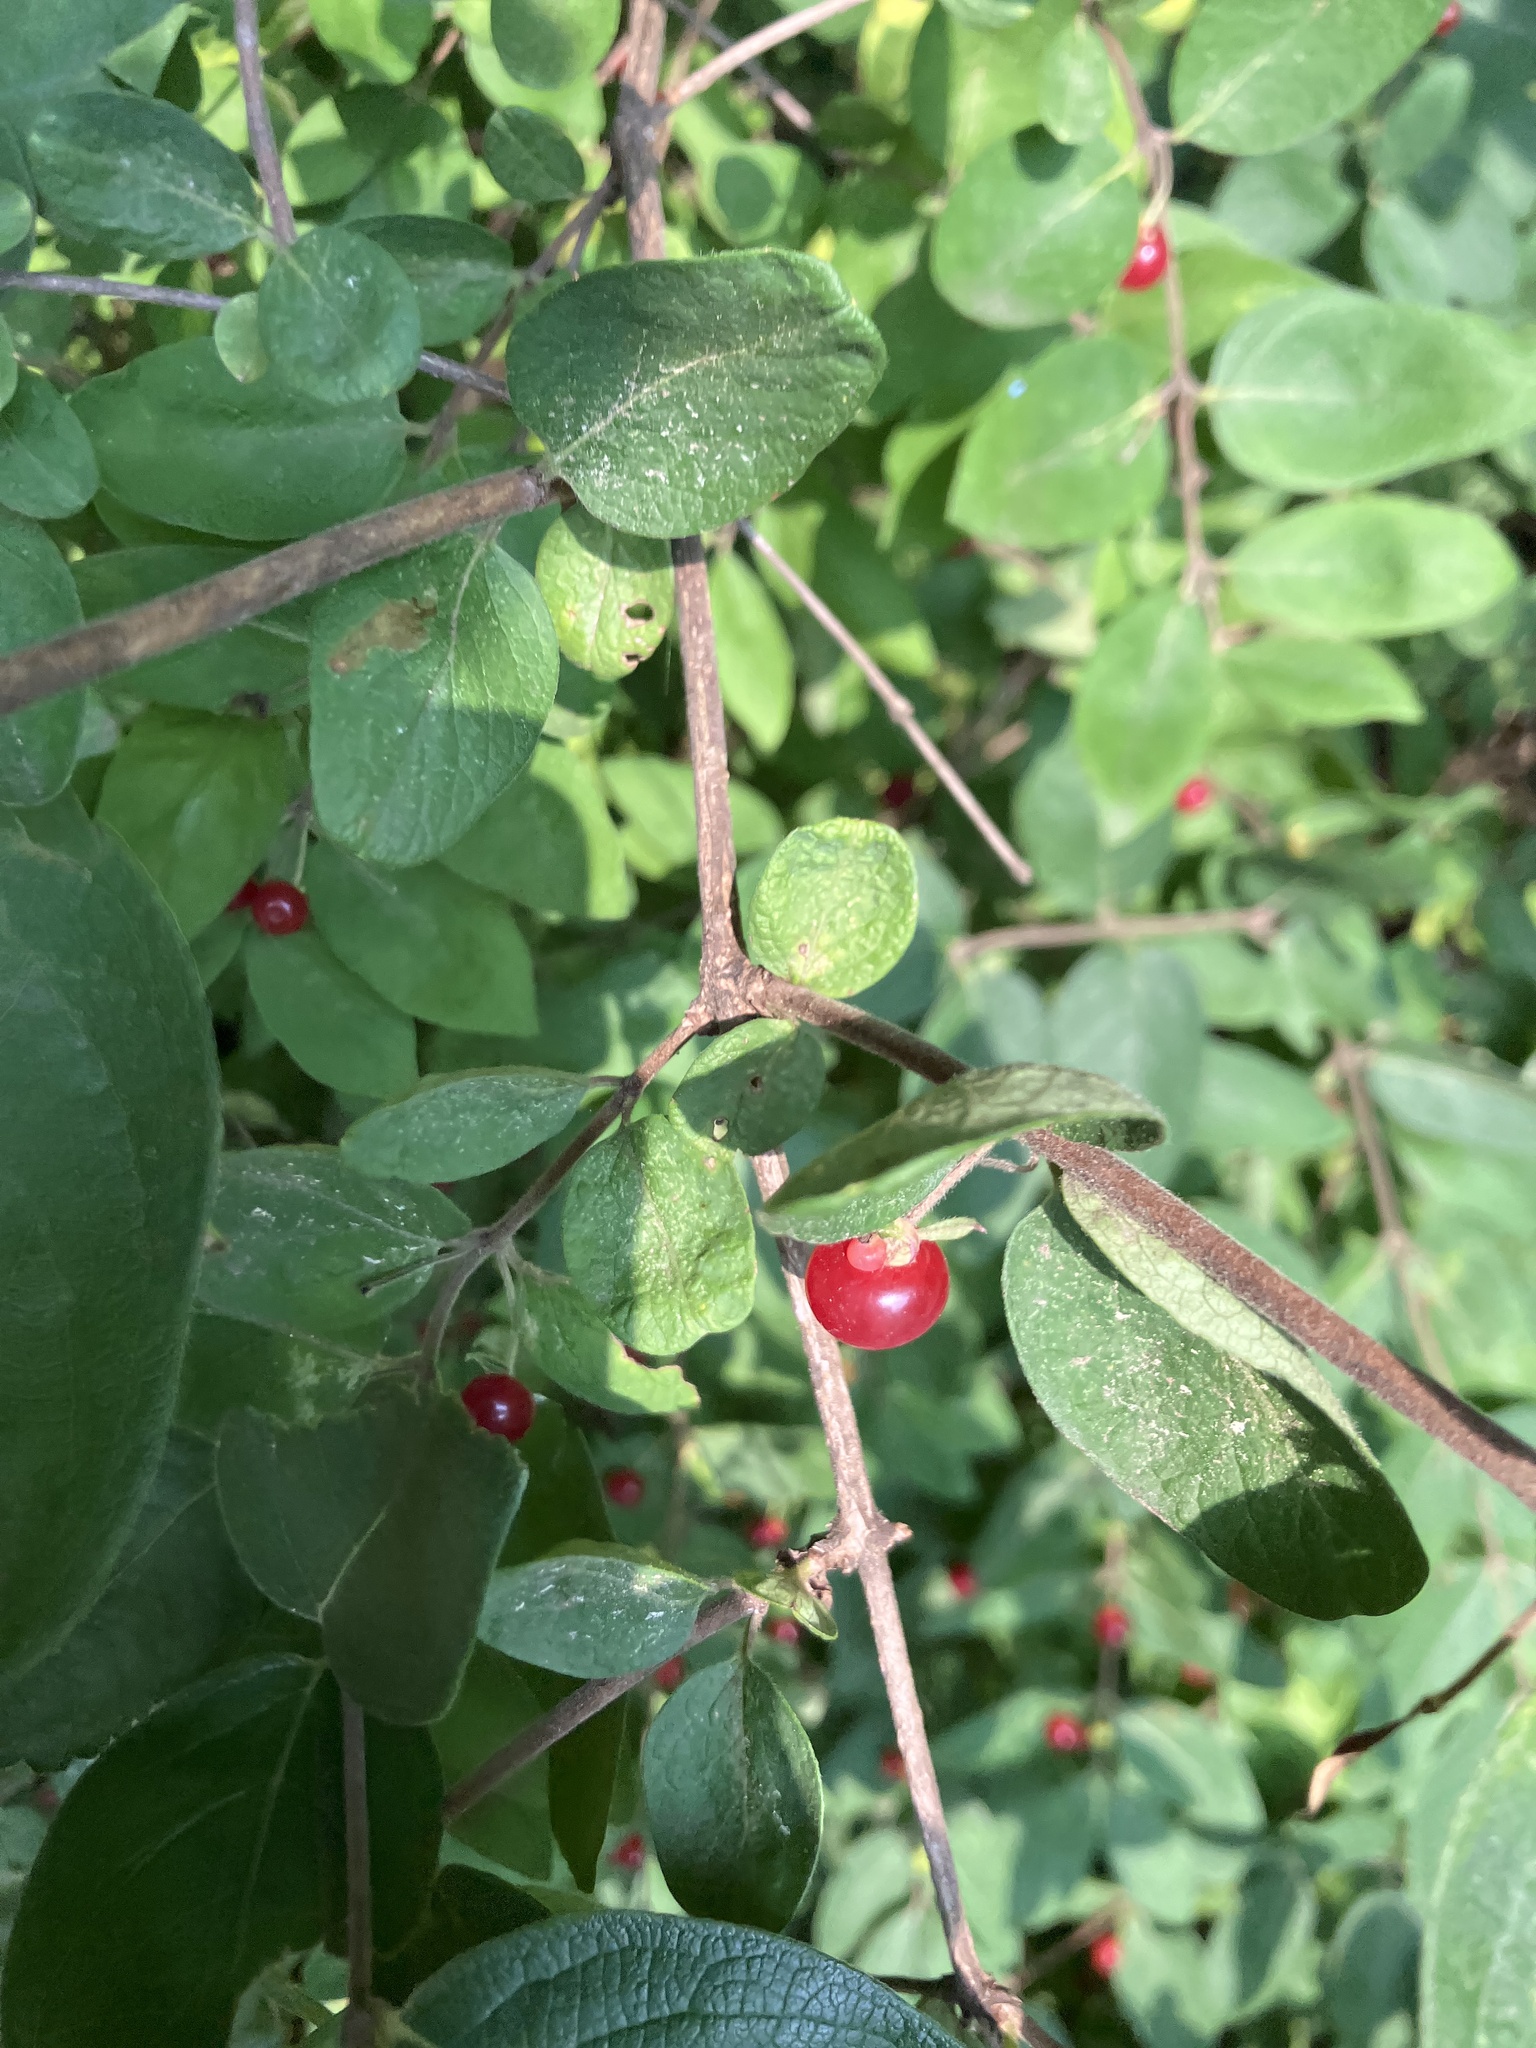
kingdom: Plantae
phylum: Tracheophyta
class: Magnoliopsida
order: Dipsacales
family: Caprifoliaceae
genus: Lonicera
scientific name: Lonicera
